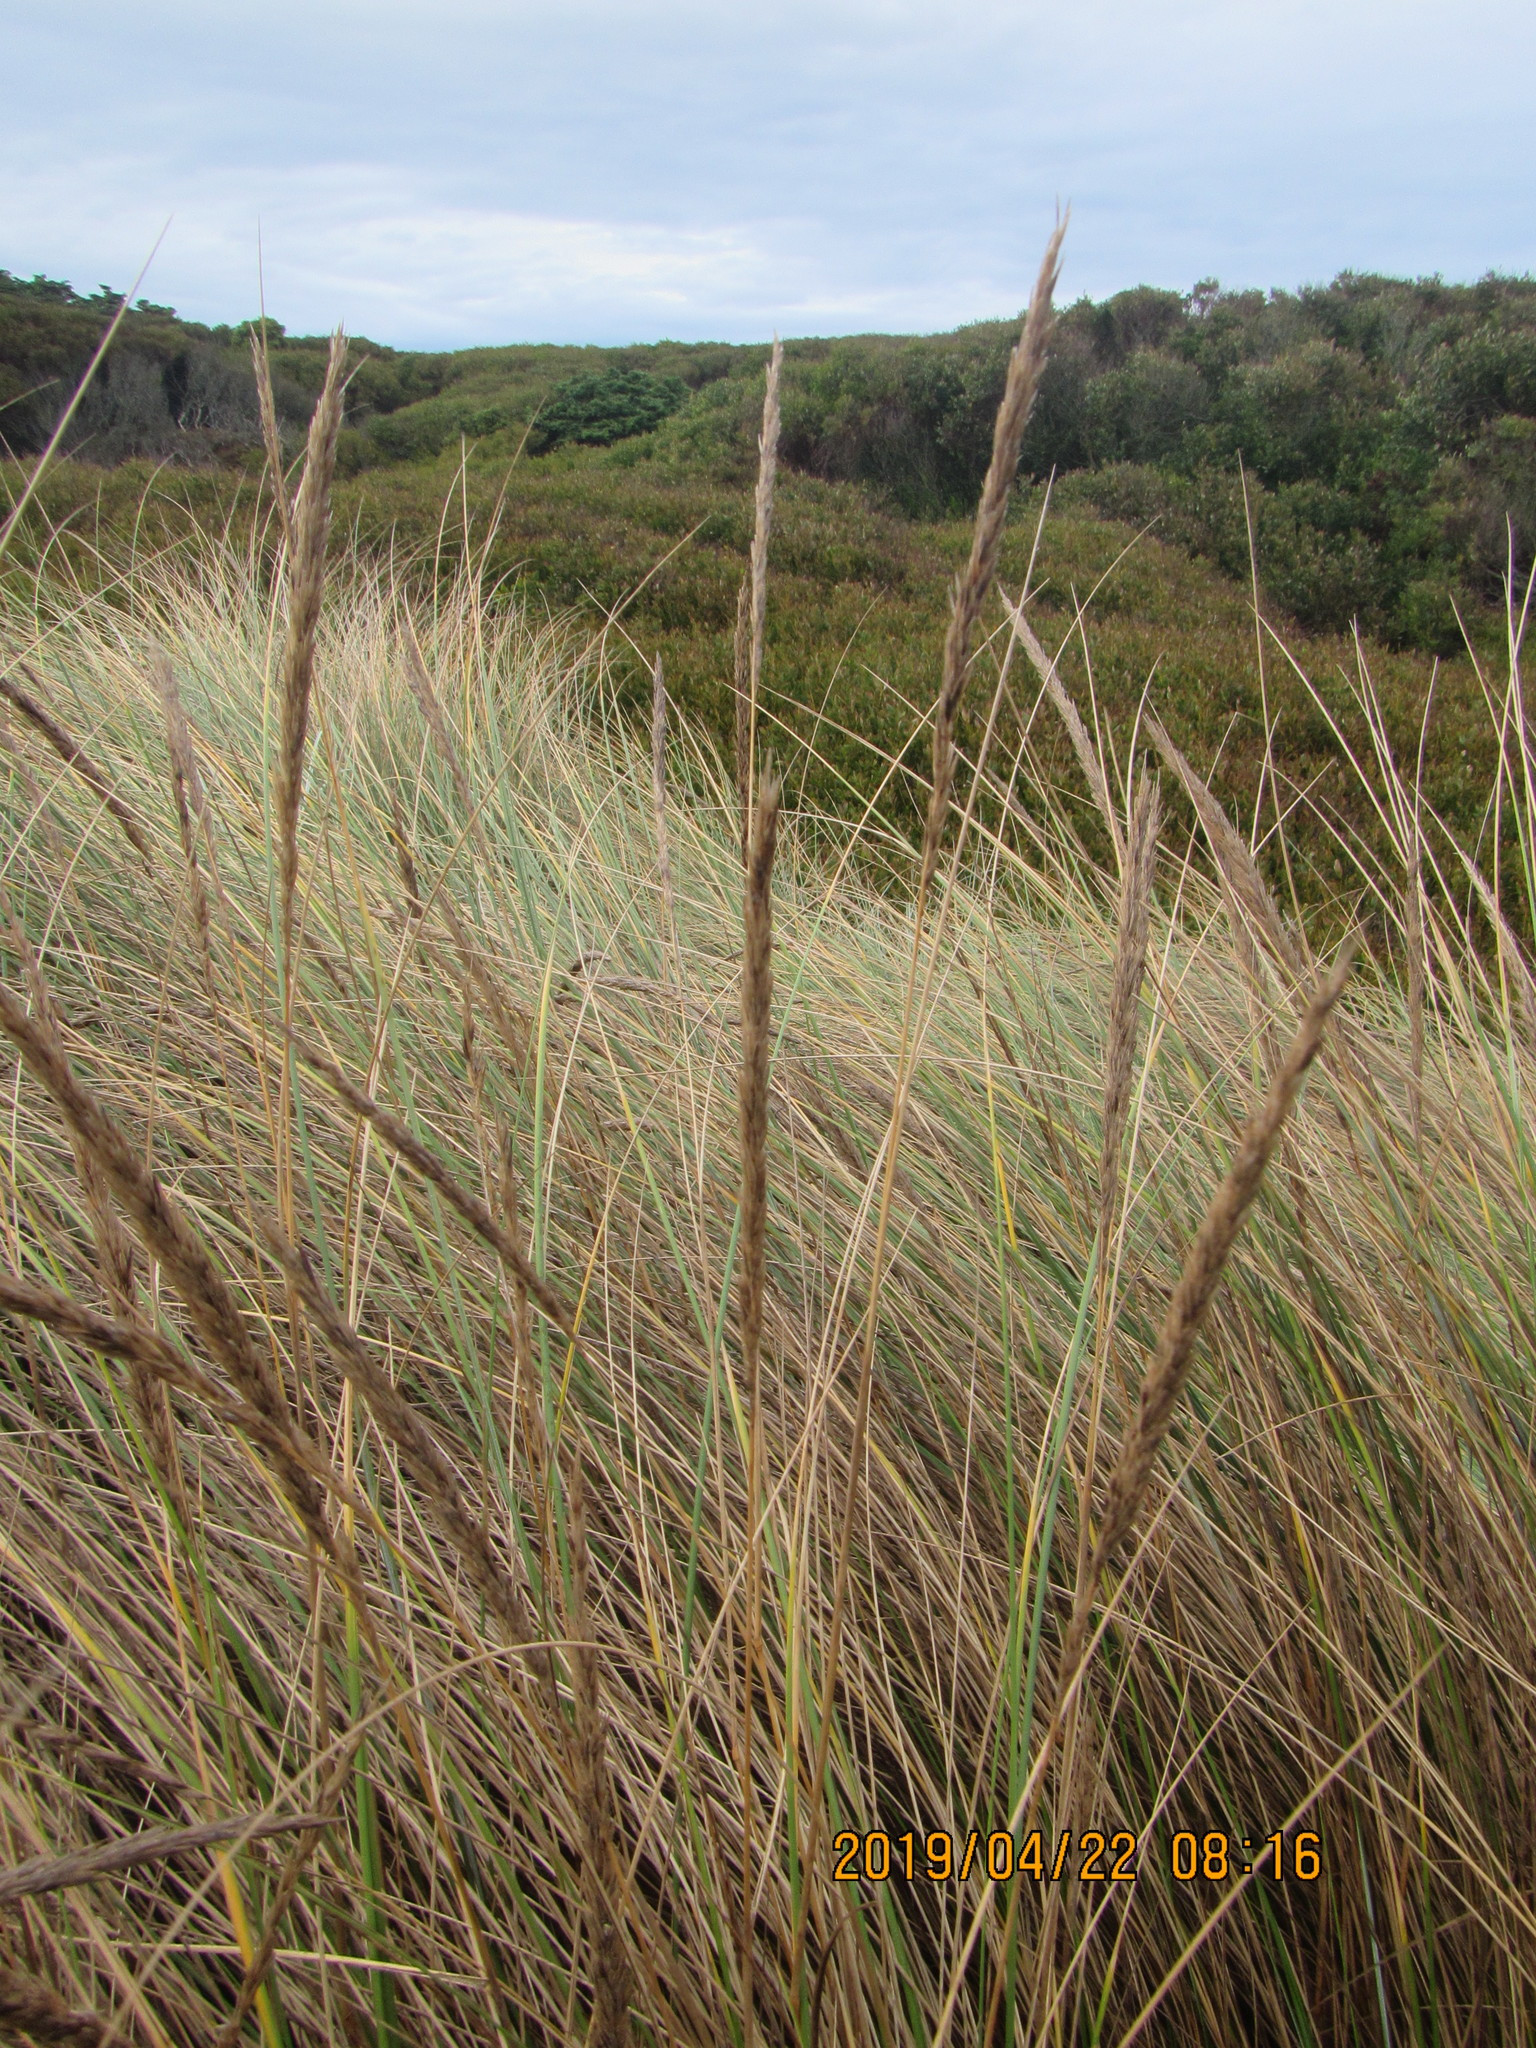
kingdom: Plantae
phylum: Tracheophyta
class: Liliopsida
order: Poales
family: Poaceae
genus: Calamagrostis
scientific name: Calamagrostis arenaria
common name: European beachgrass
